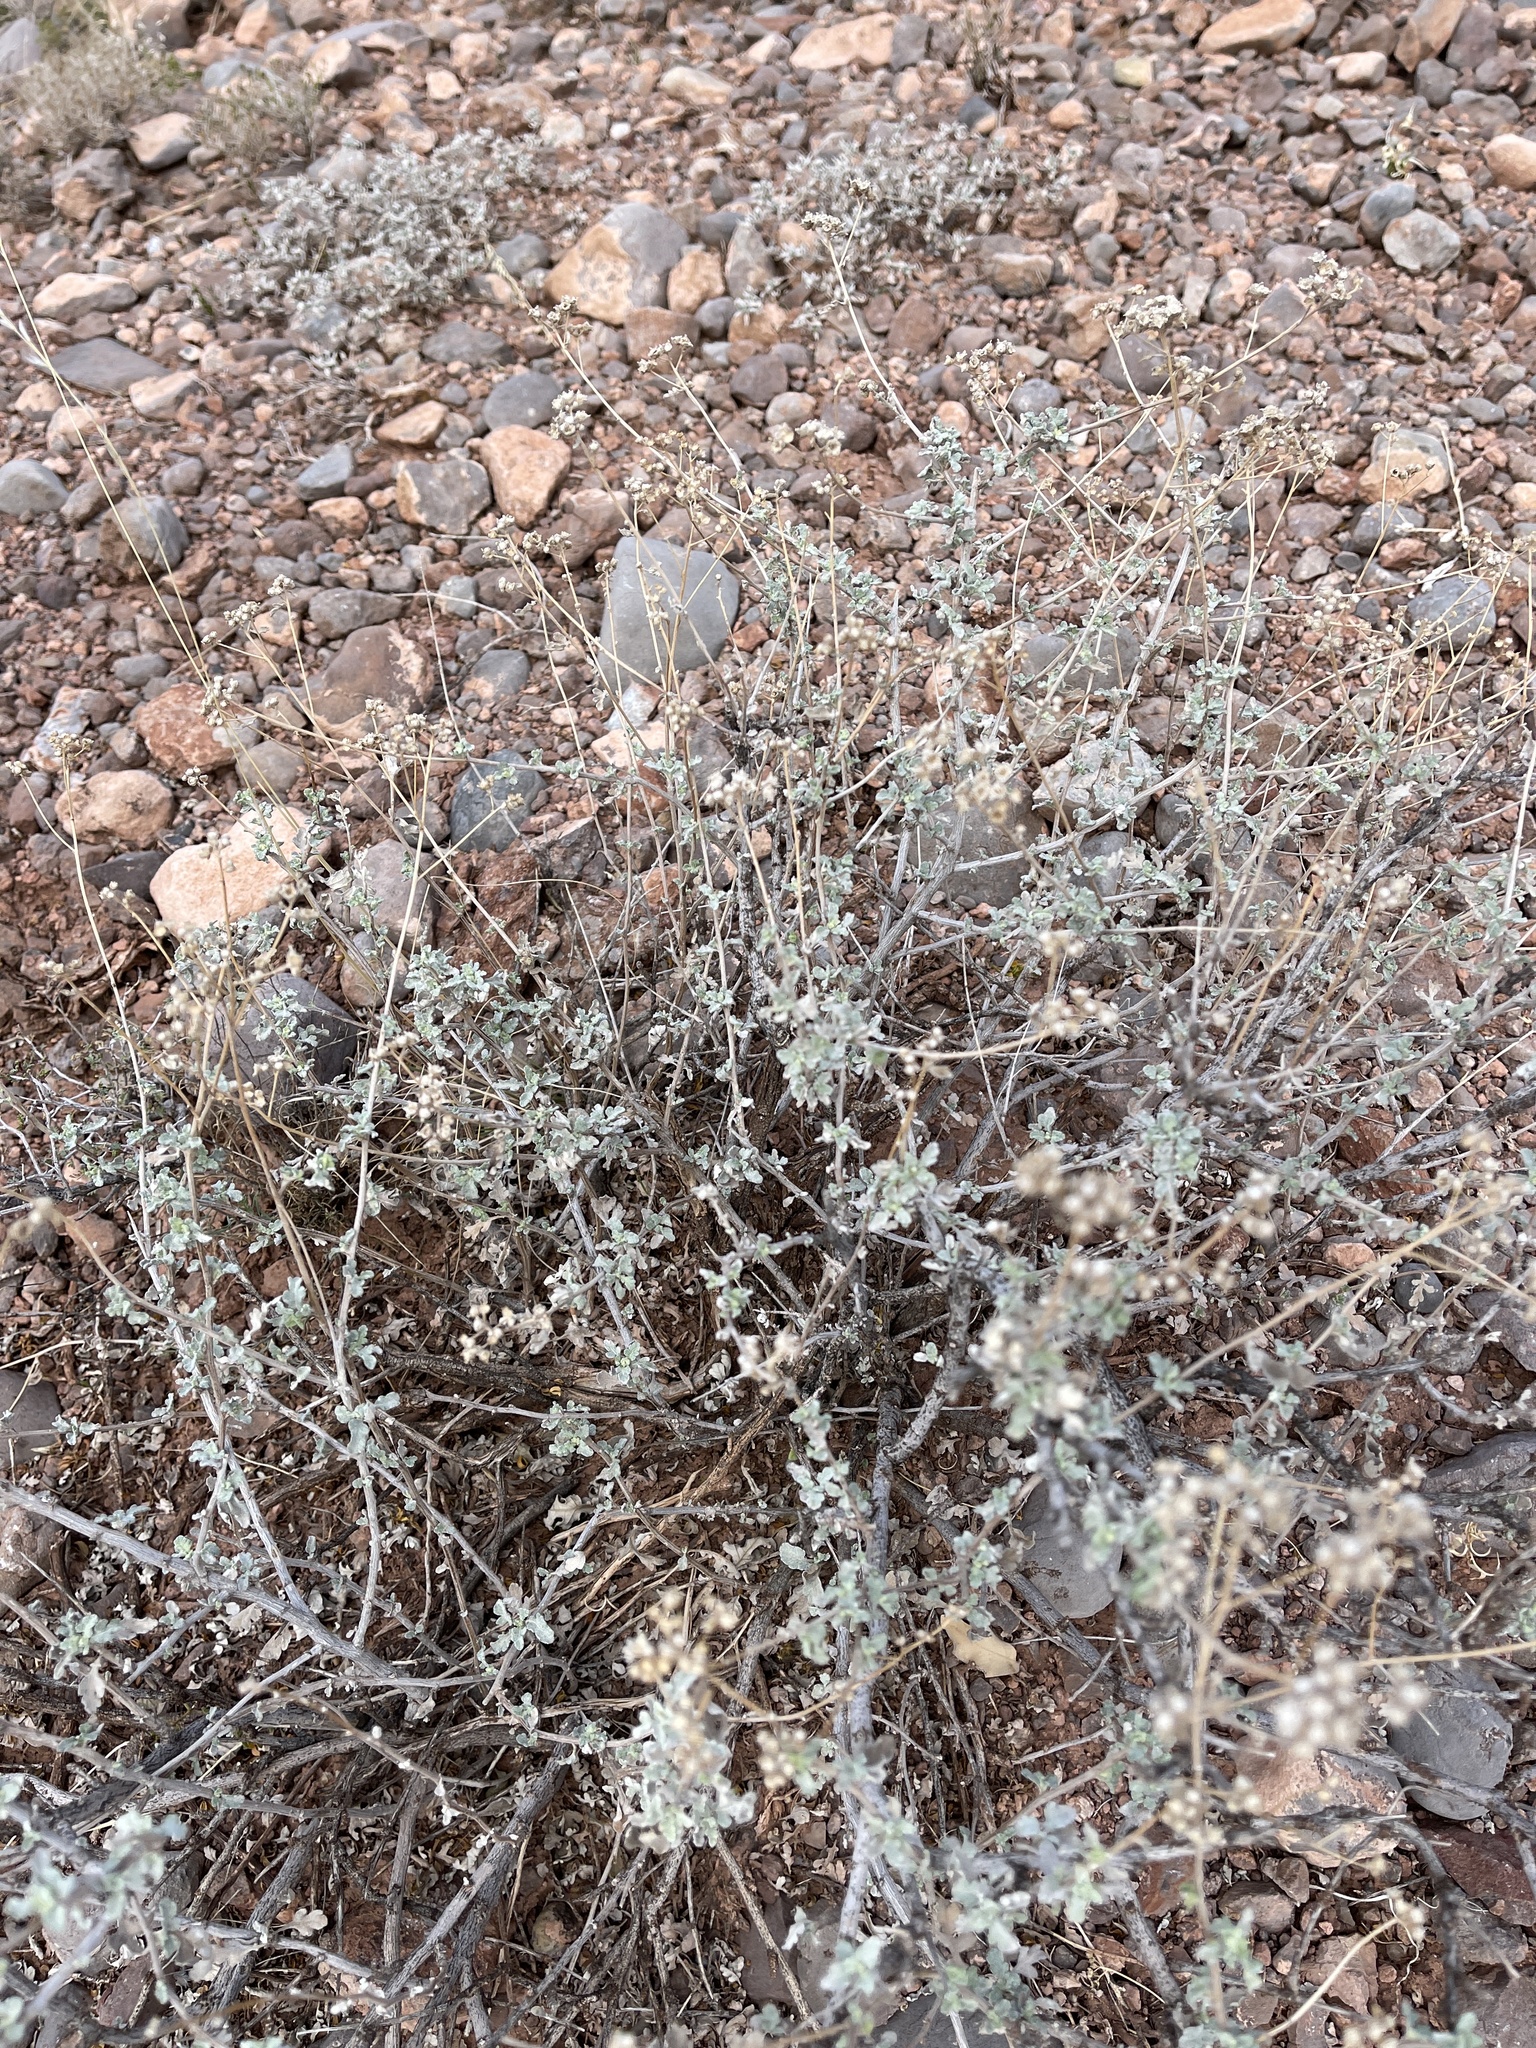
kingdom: Plantae
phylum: Tracheophyta
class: Magnoliopsida
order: Asterales
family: Asteraceae
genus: Parthenium
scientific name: Parthenium incanum
